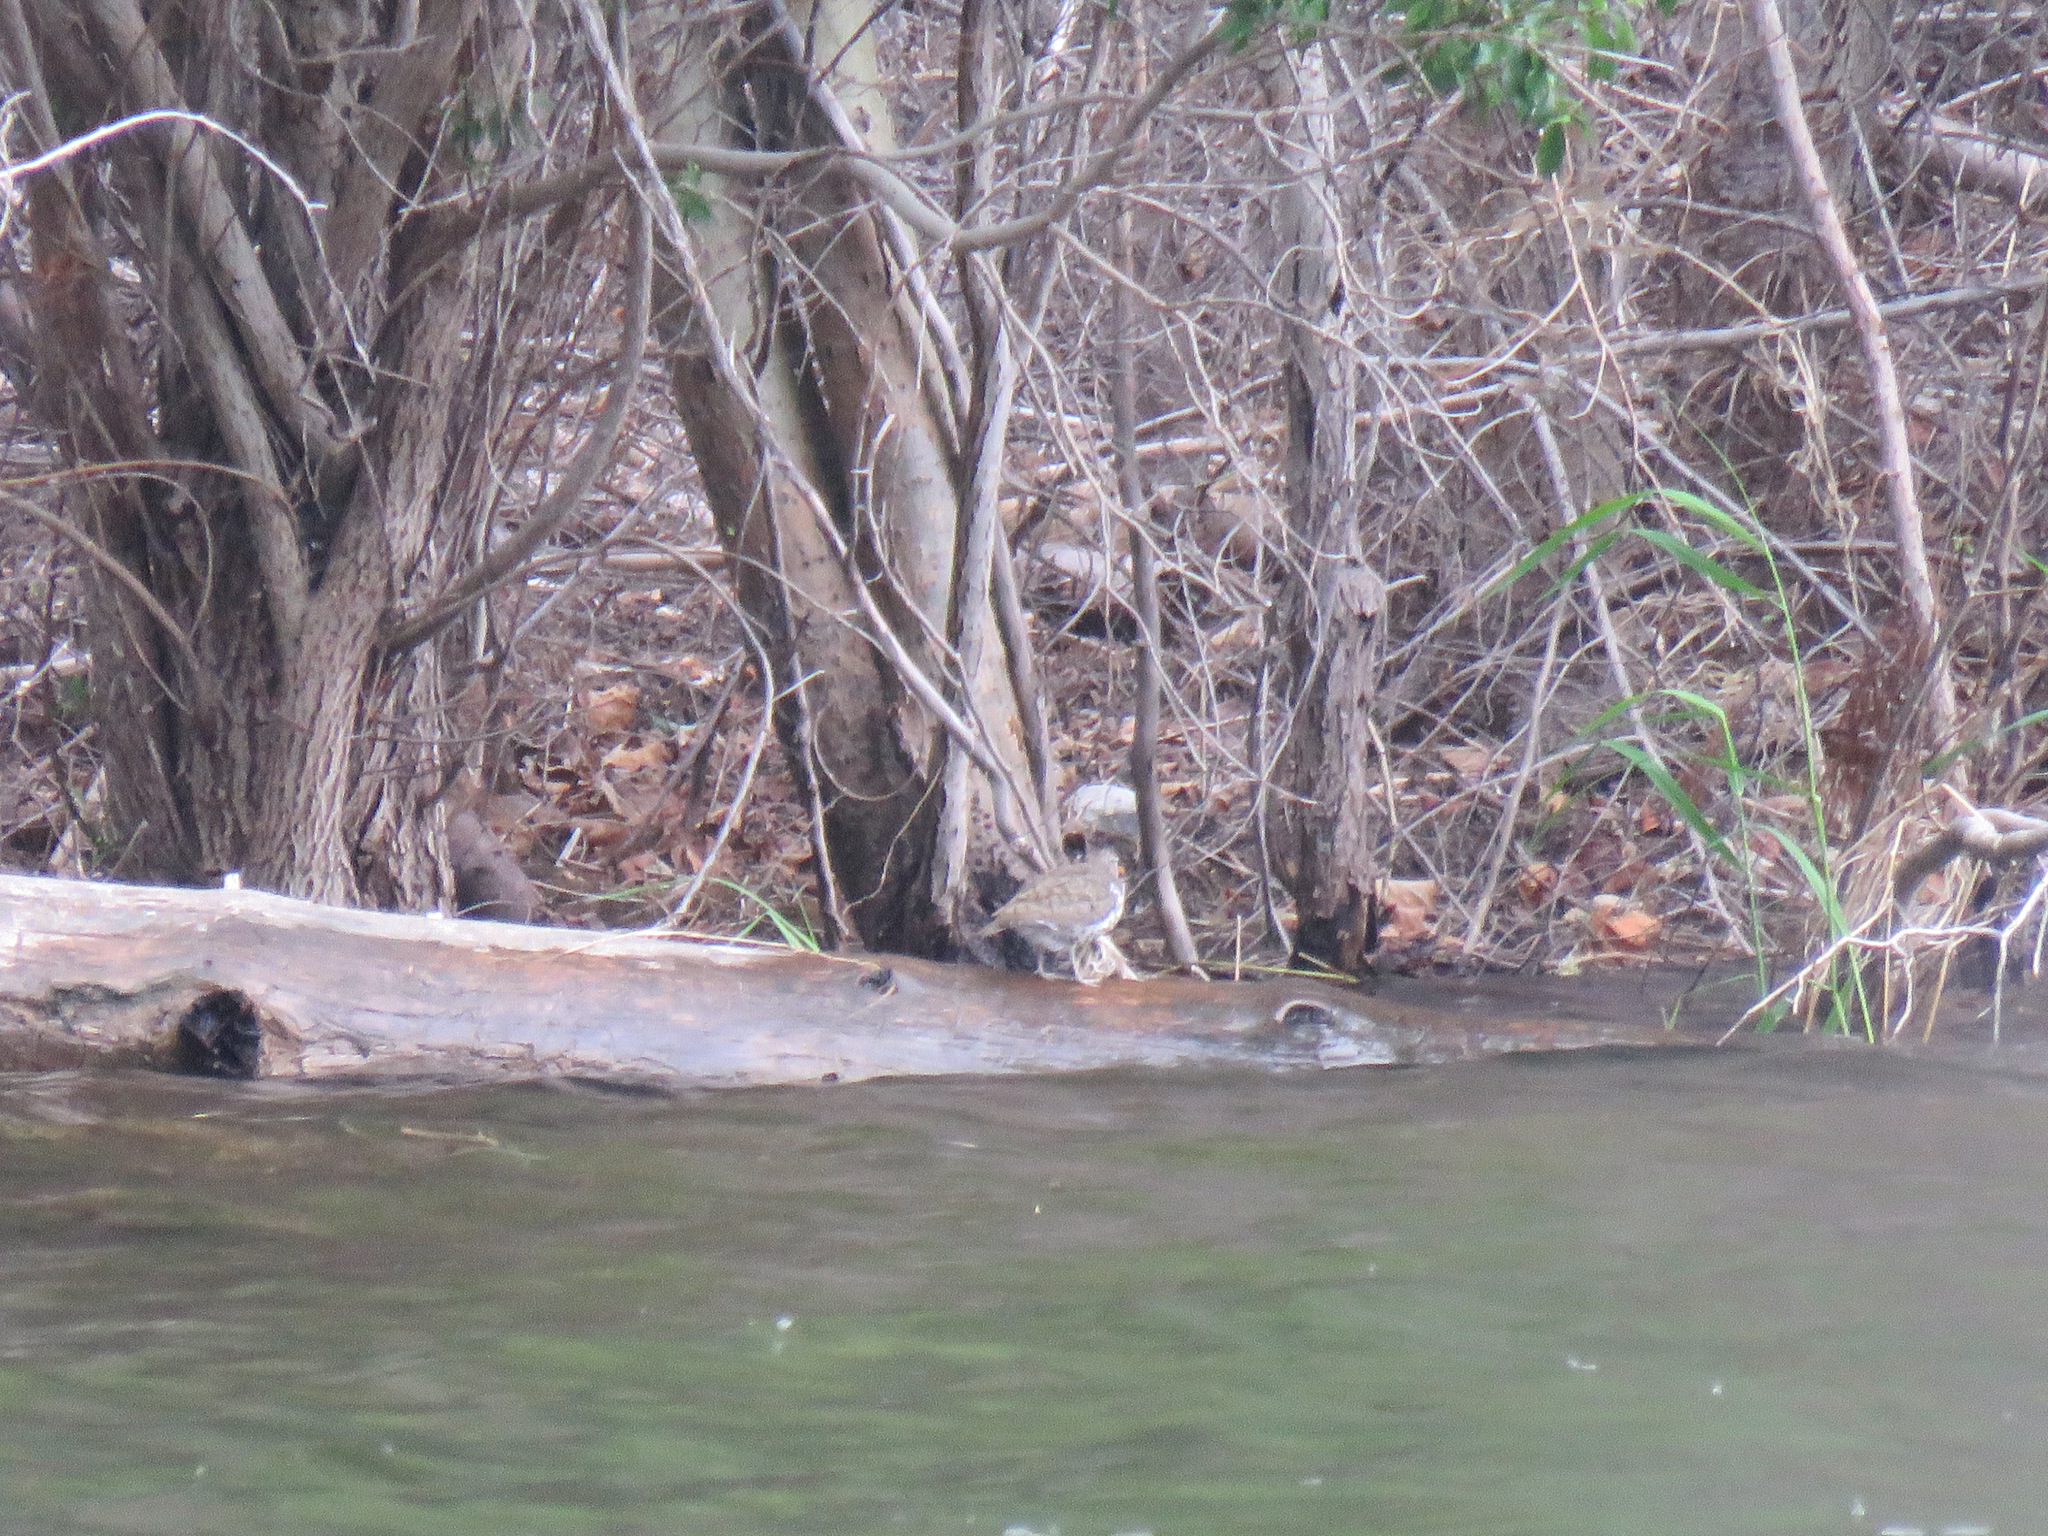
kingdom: Animalia
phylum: Chordata
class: Aves
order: Charadriiformes
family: Scolopacidae
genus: Actitis
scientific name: Actitis macularius
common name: Spotted sandpiper
